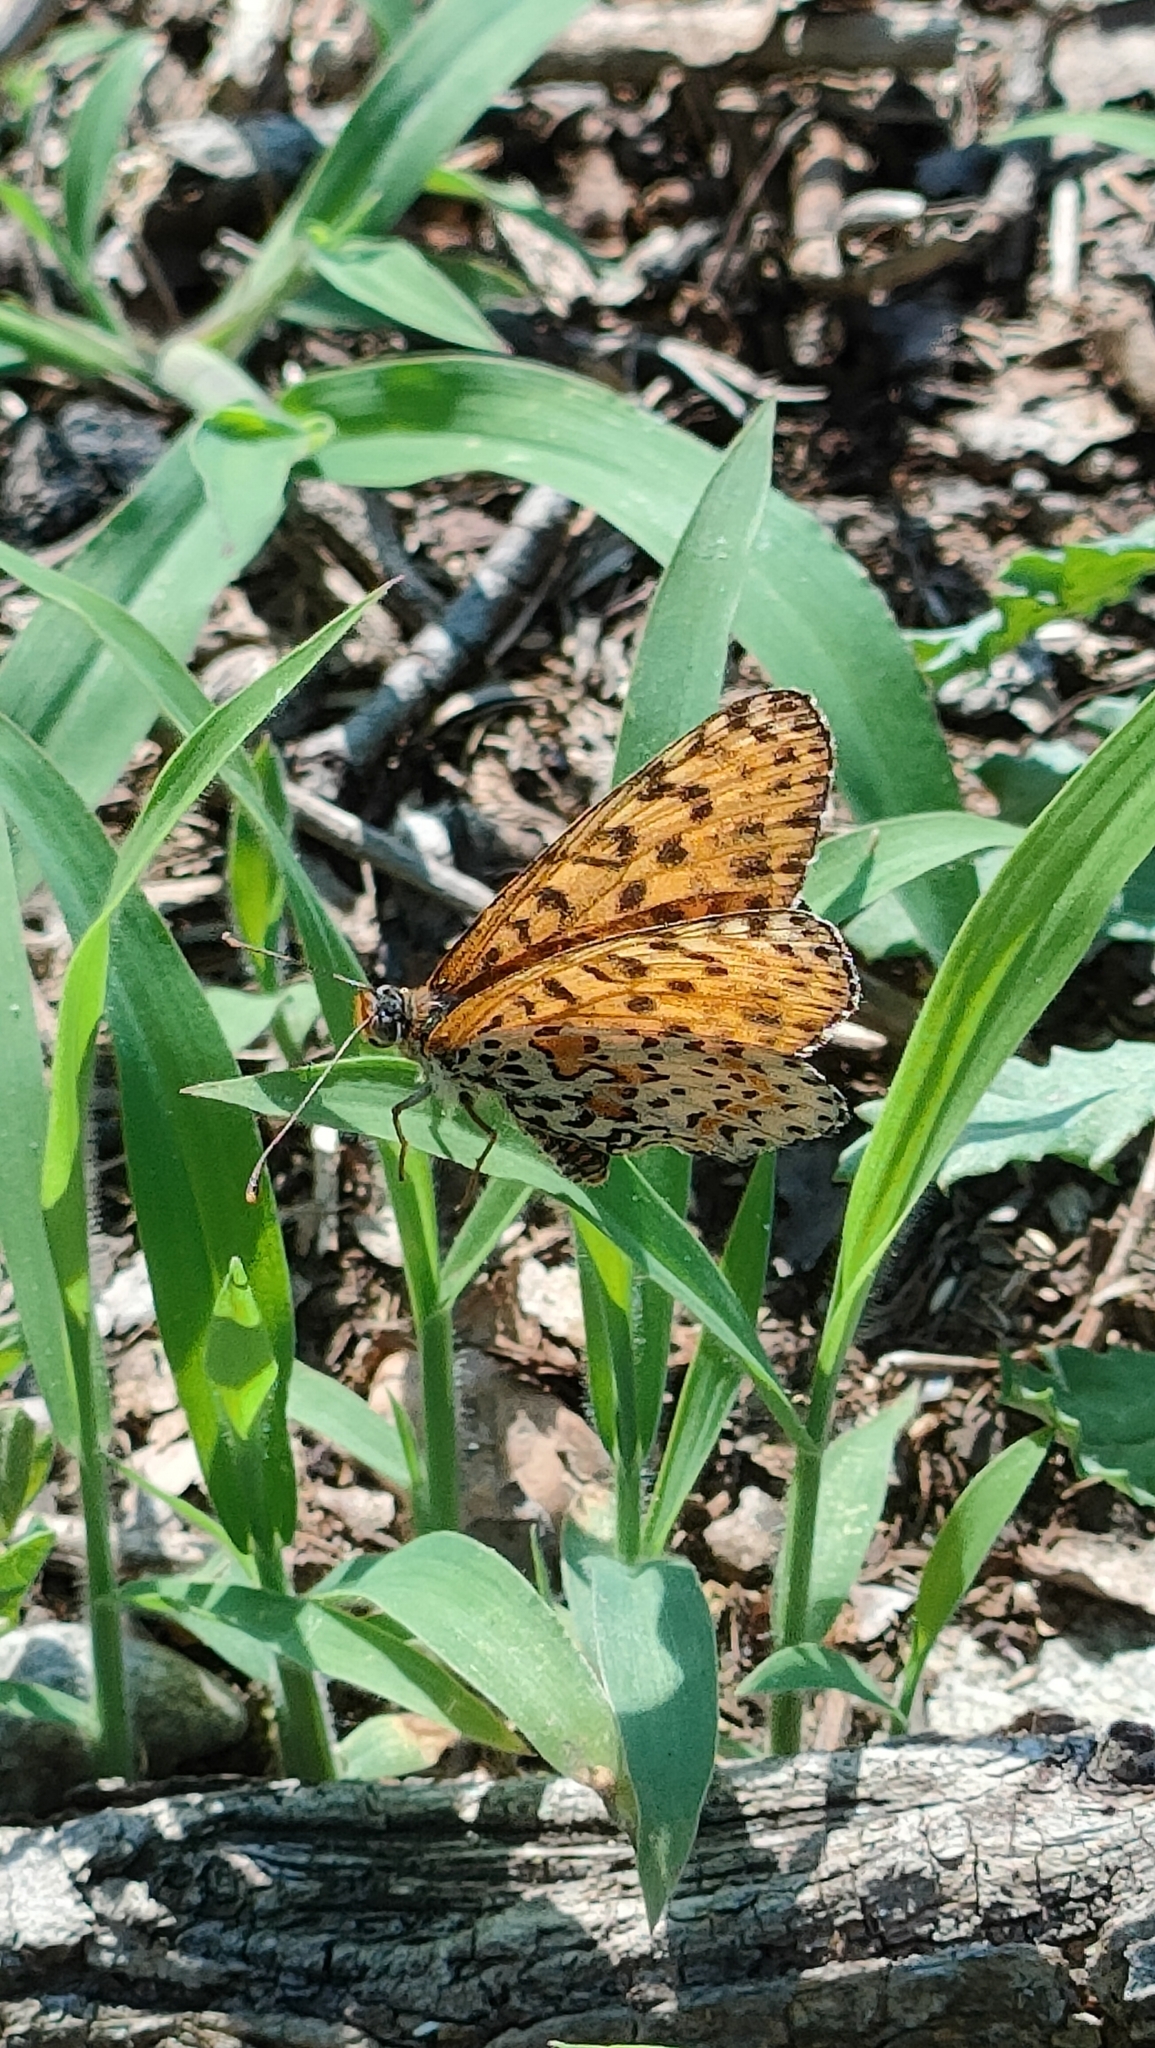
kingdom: Animalia
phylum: Arthropoda
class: Insecta
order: Lepidoptera
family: Nymphalidae
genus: Melitaea
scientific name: Melitaea didyma
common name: Spotted fritillary
